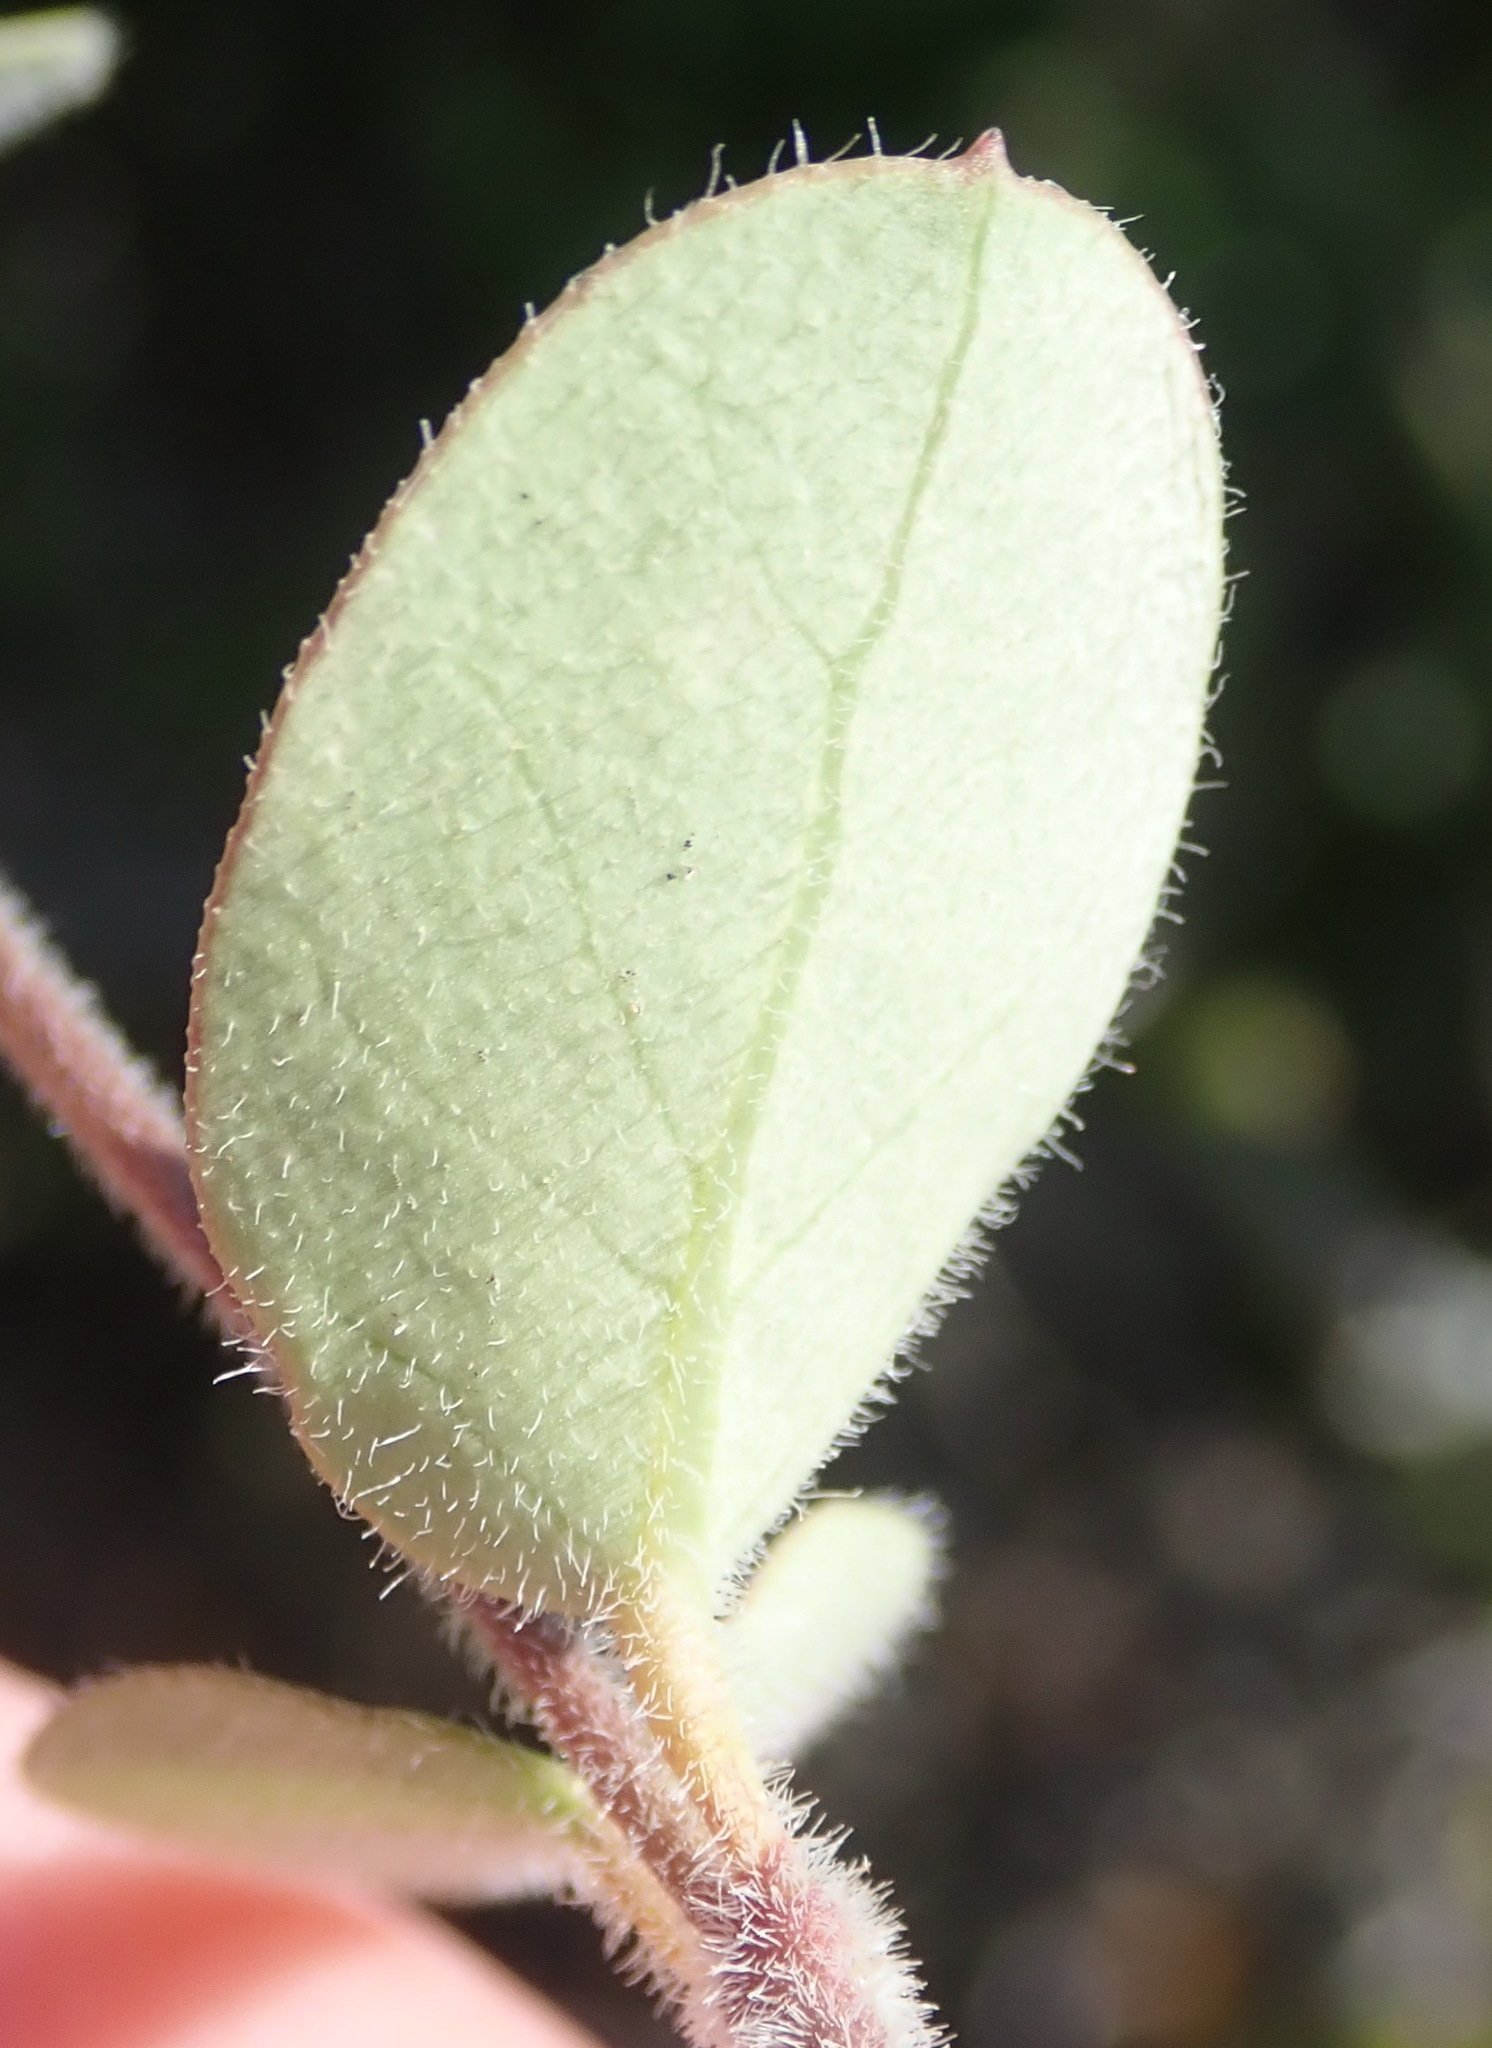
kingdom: Plantae
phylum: Tracheophyta
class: Magnoliopsida
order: Gentianales
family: Apocynaceae
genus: Cynanchum
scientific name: Cynanchum obtusifolium
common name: Monkey-rope
